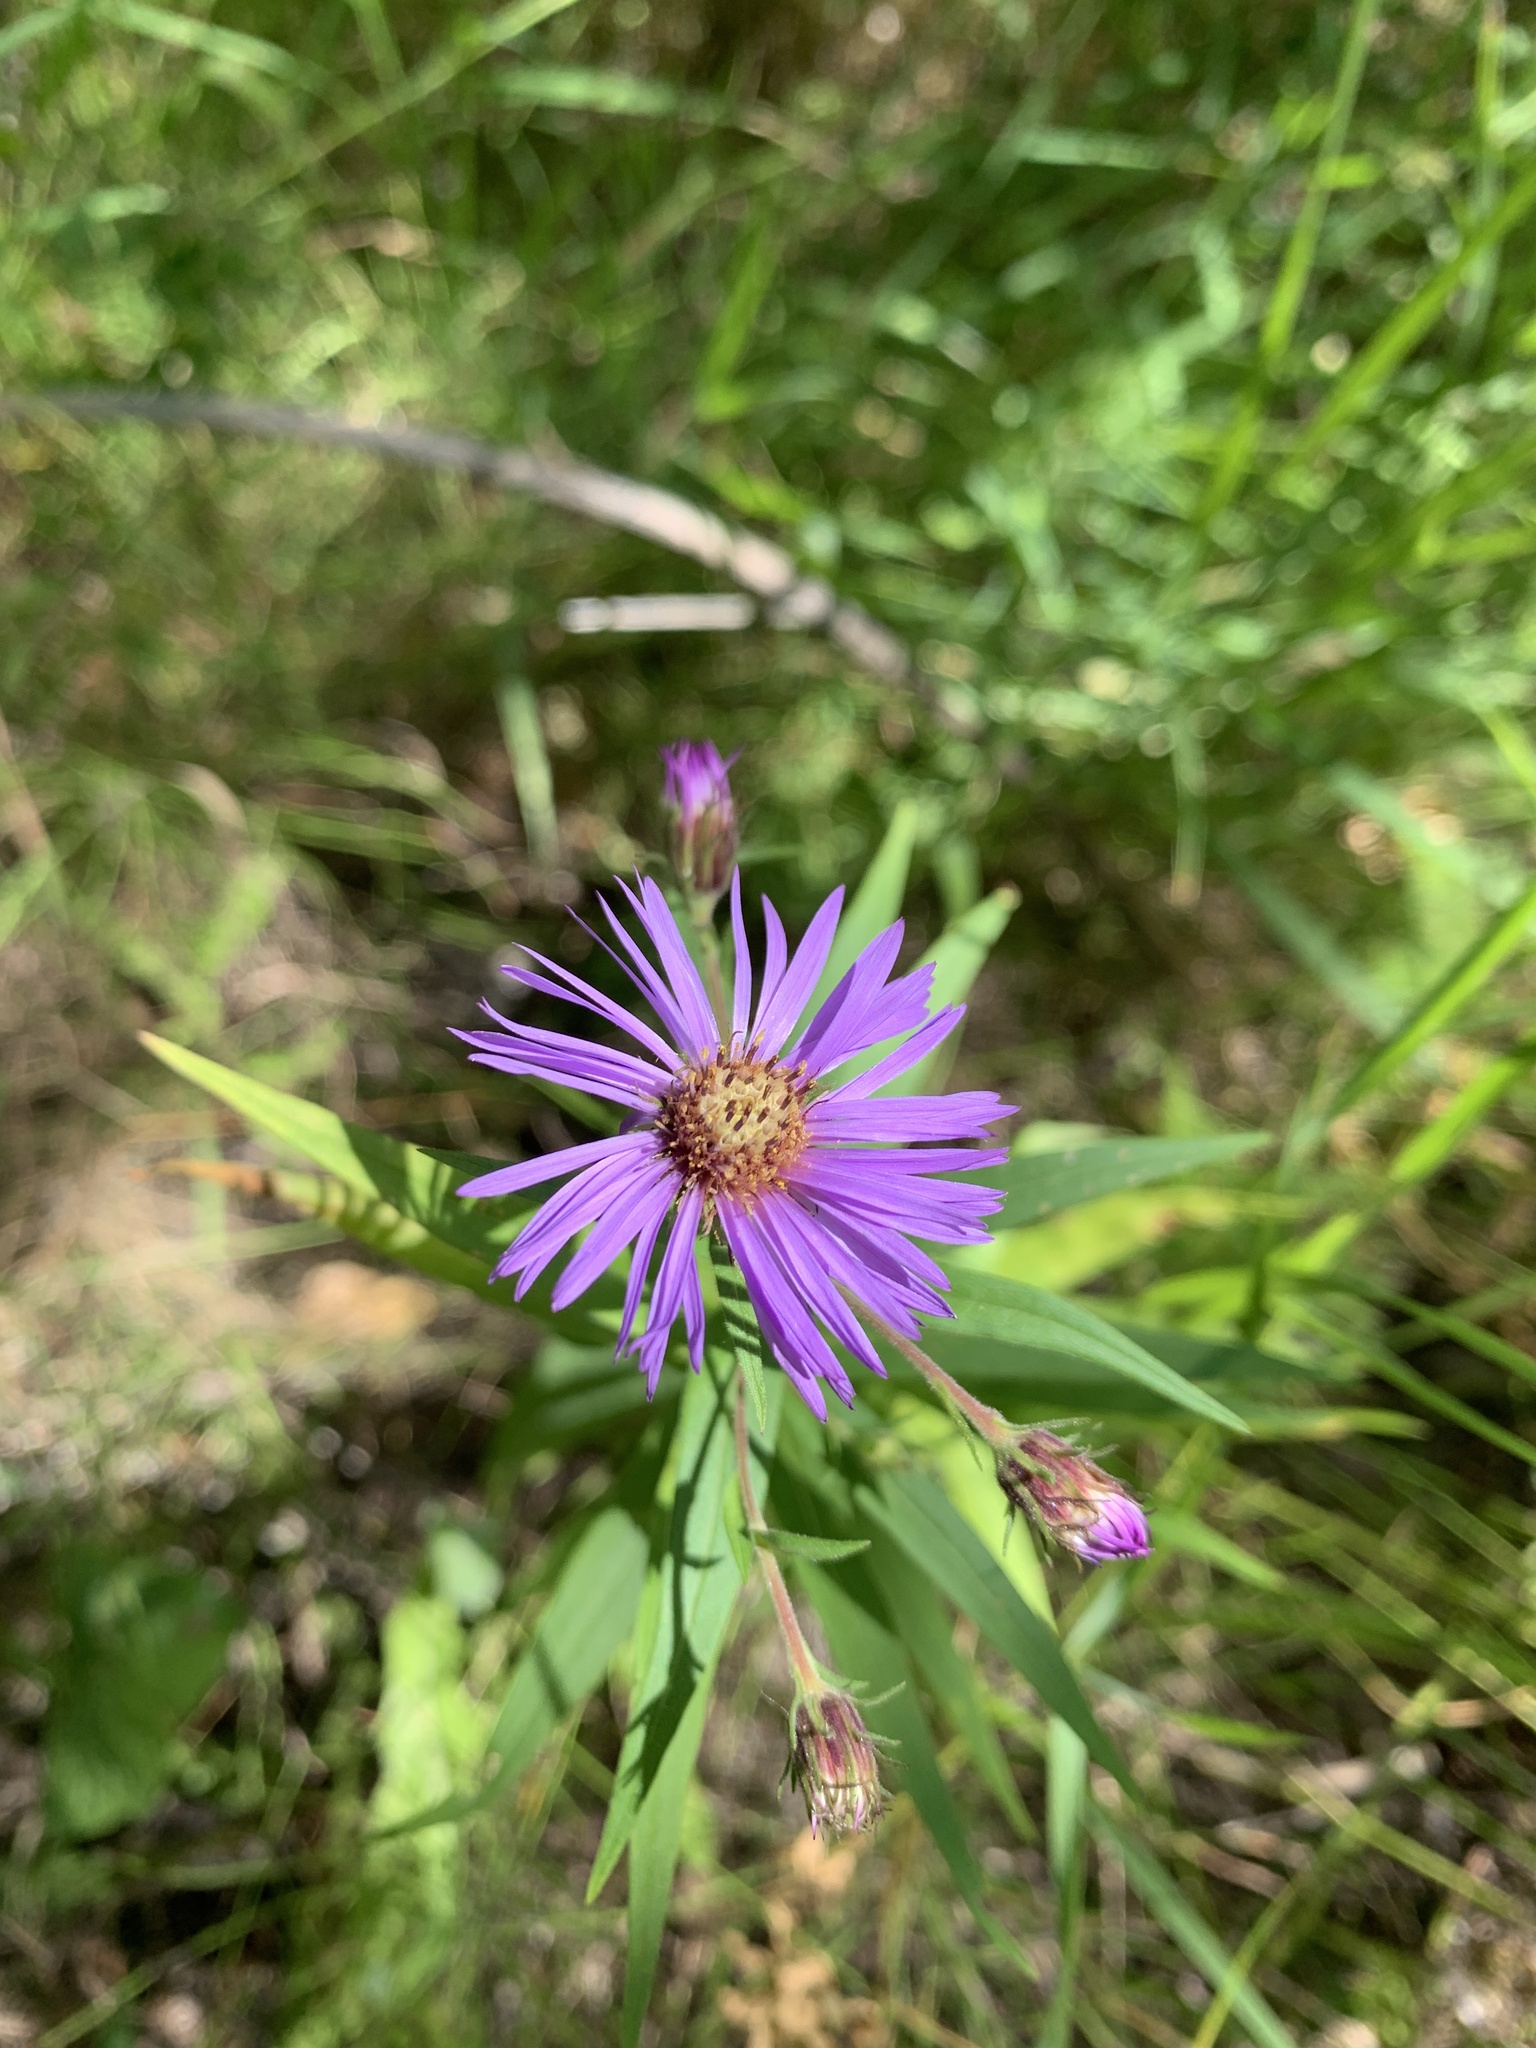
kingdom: Plantae
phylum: Tracheophyta
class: Magnoliopsida
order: Asterales
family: Asteraceae
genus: Canadanthus
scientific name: Canadanthus modestus
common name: Great northern aster
